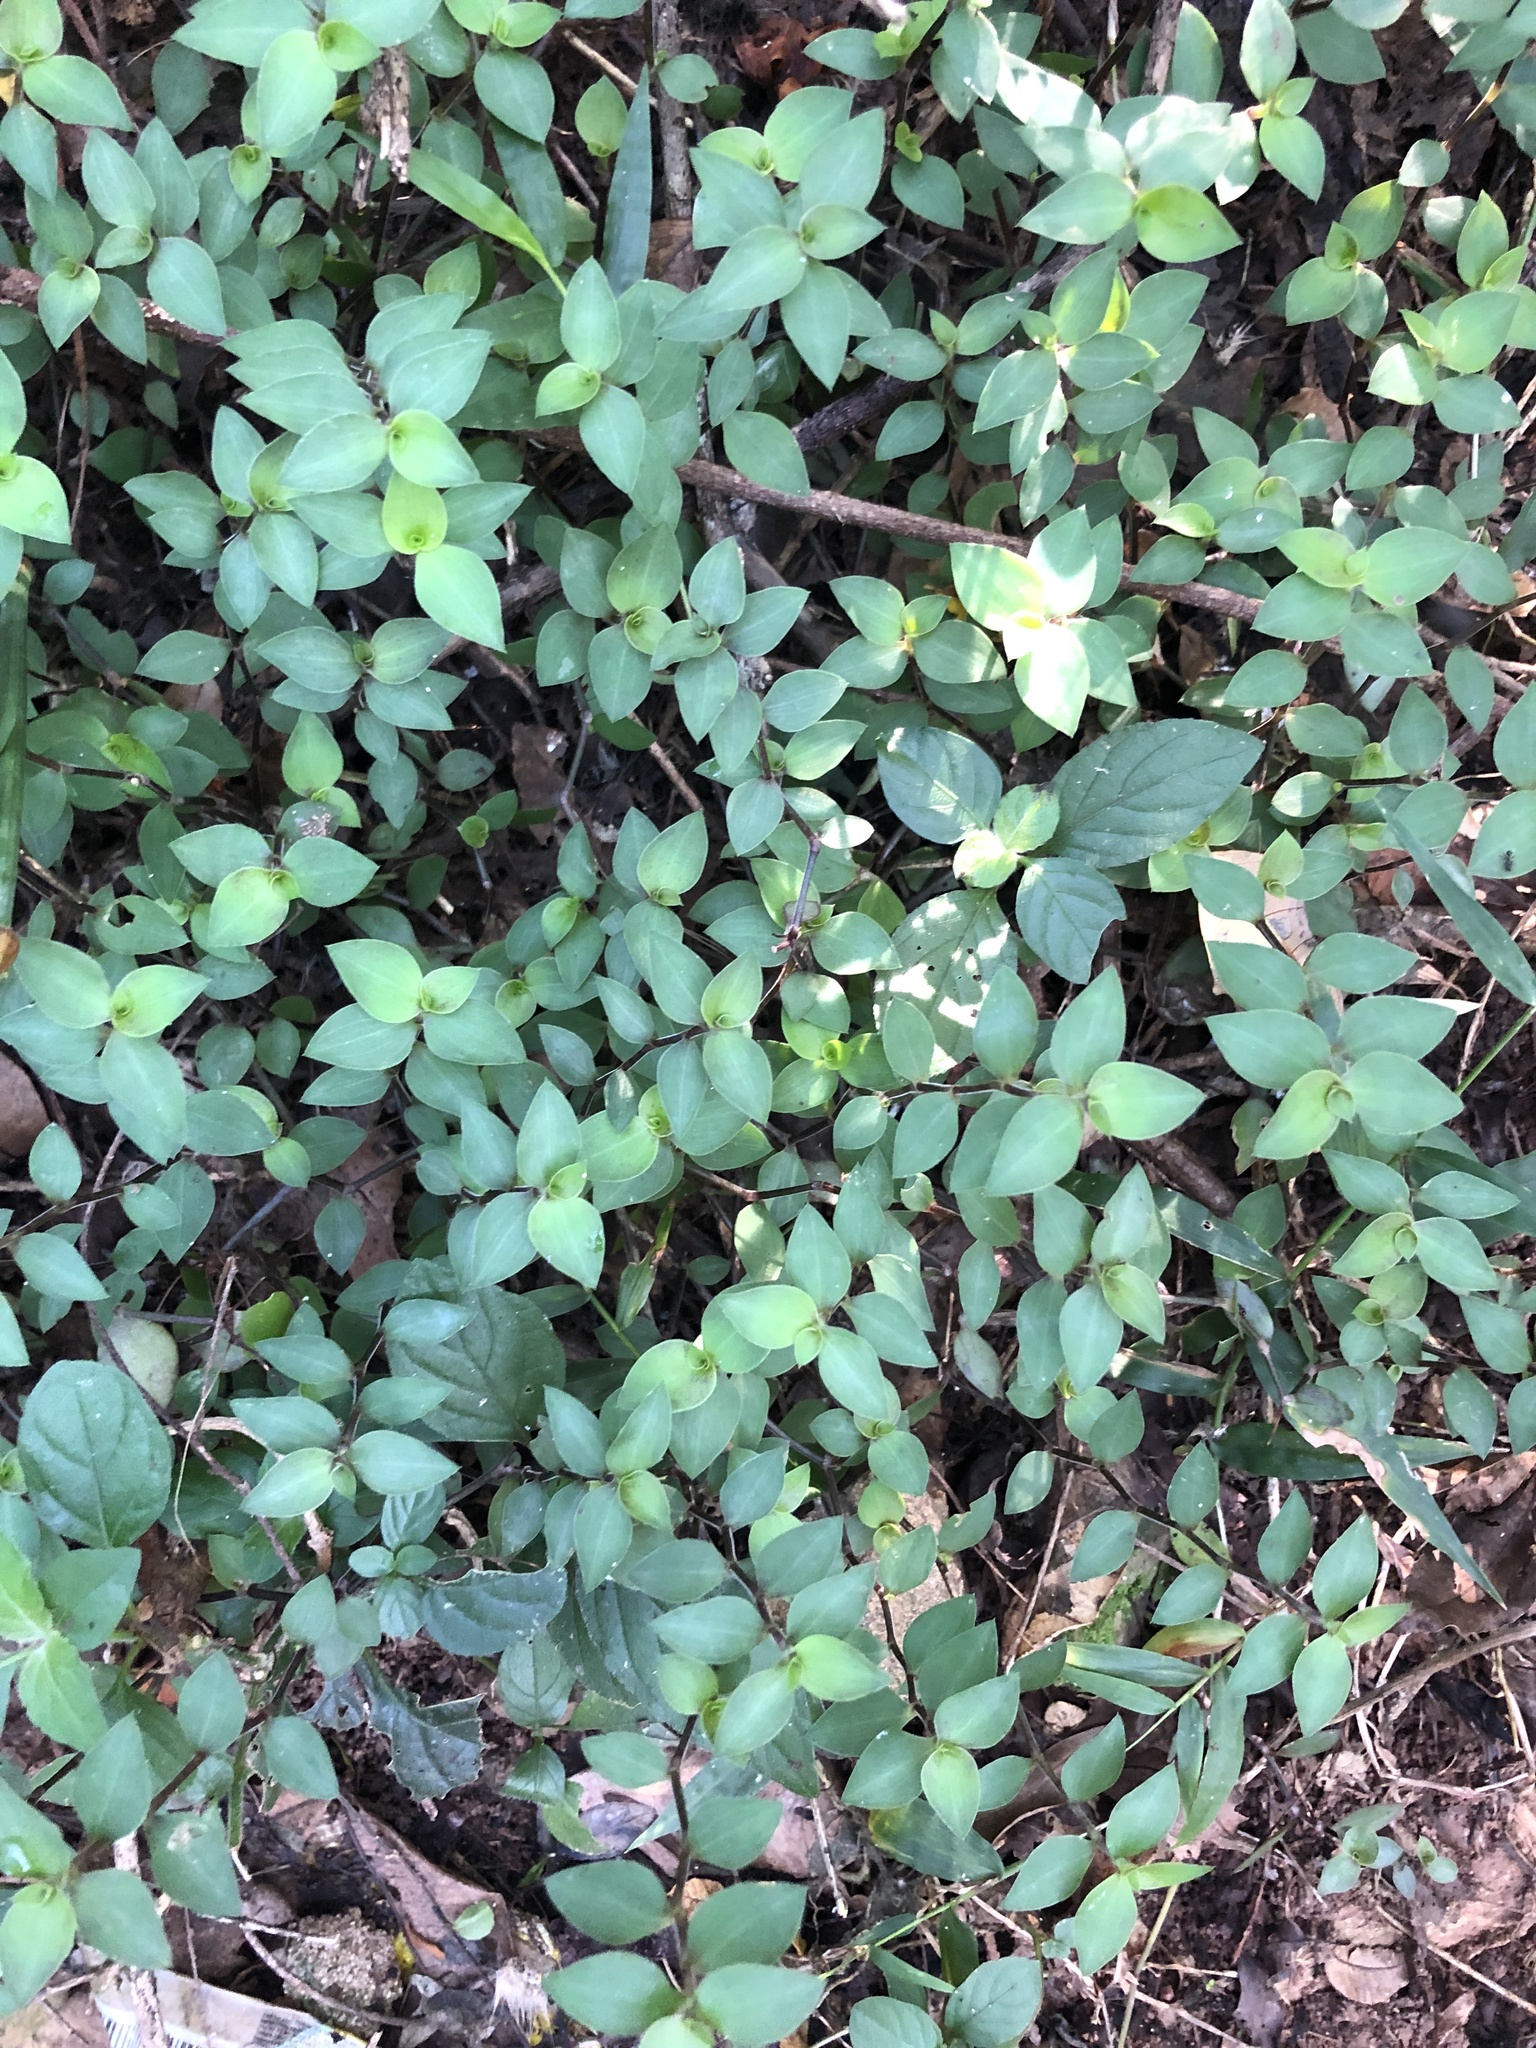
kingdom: Plantae
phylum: Tracheophyta
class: Liliopsida
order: Commelinales
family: Commelinaceae
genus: Callisia
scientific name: Callisia repens
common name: Creeping inchplant
